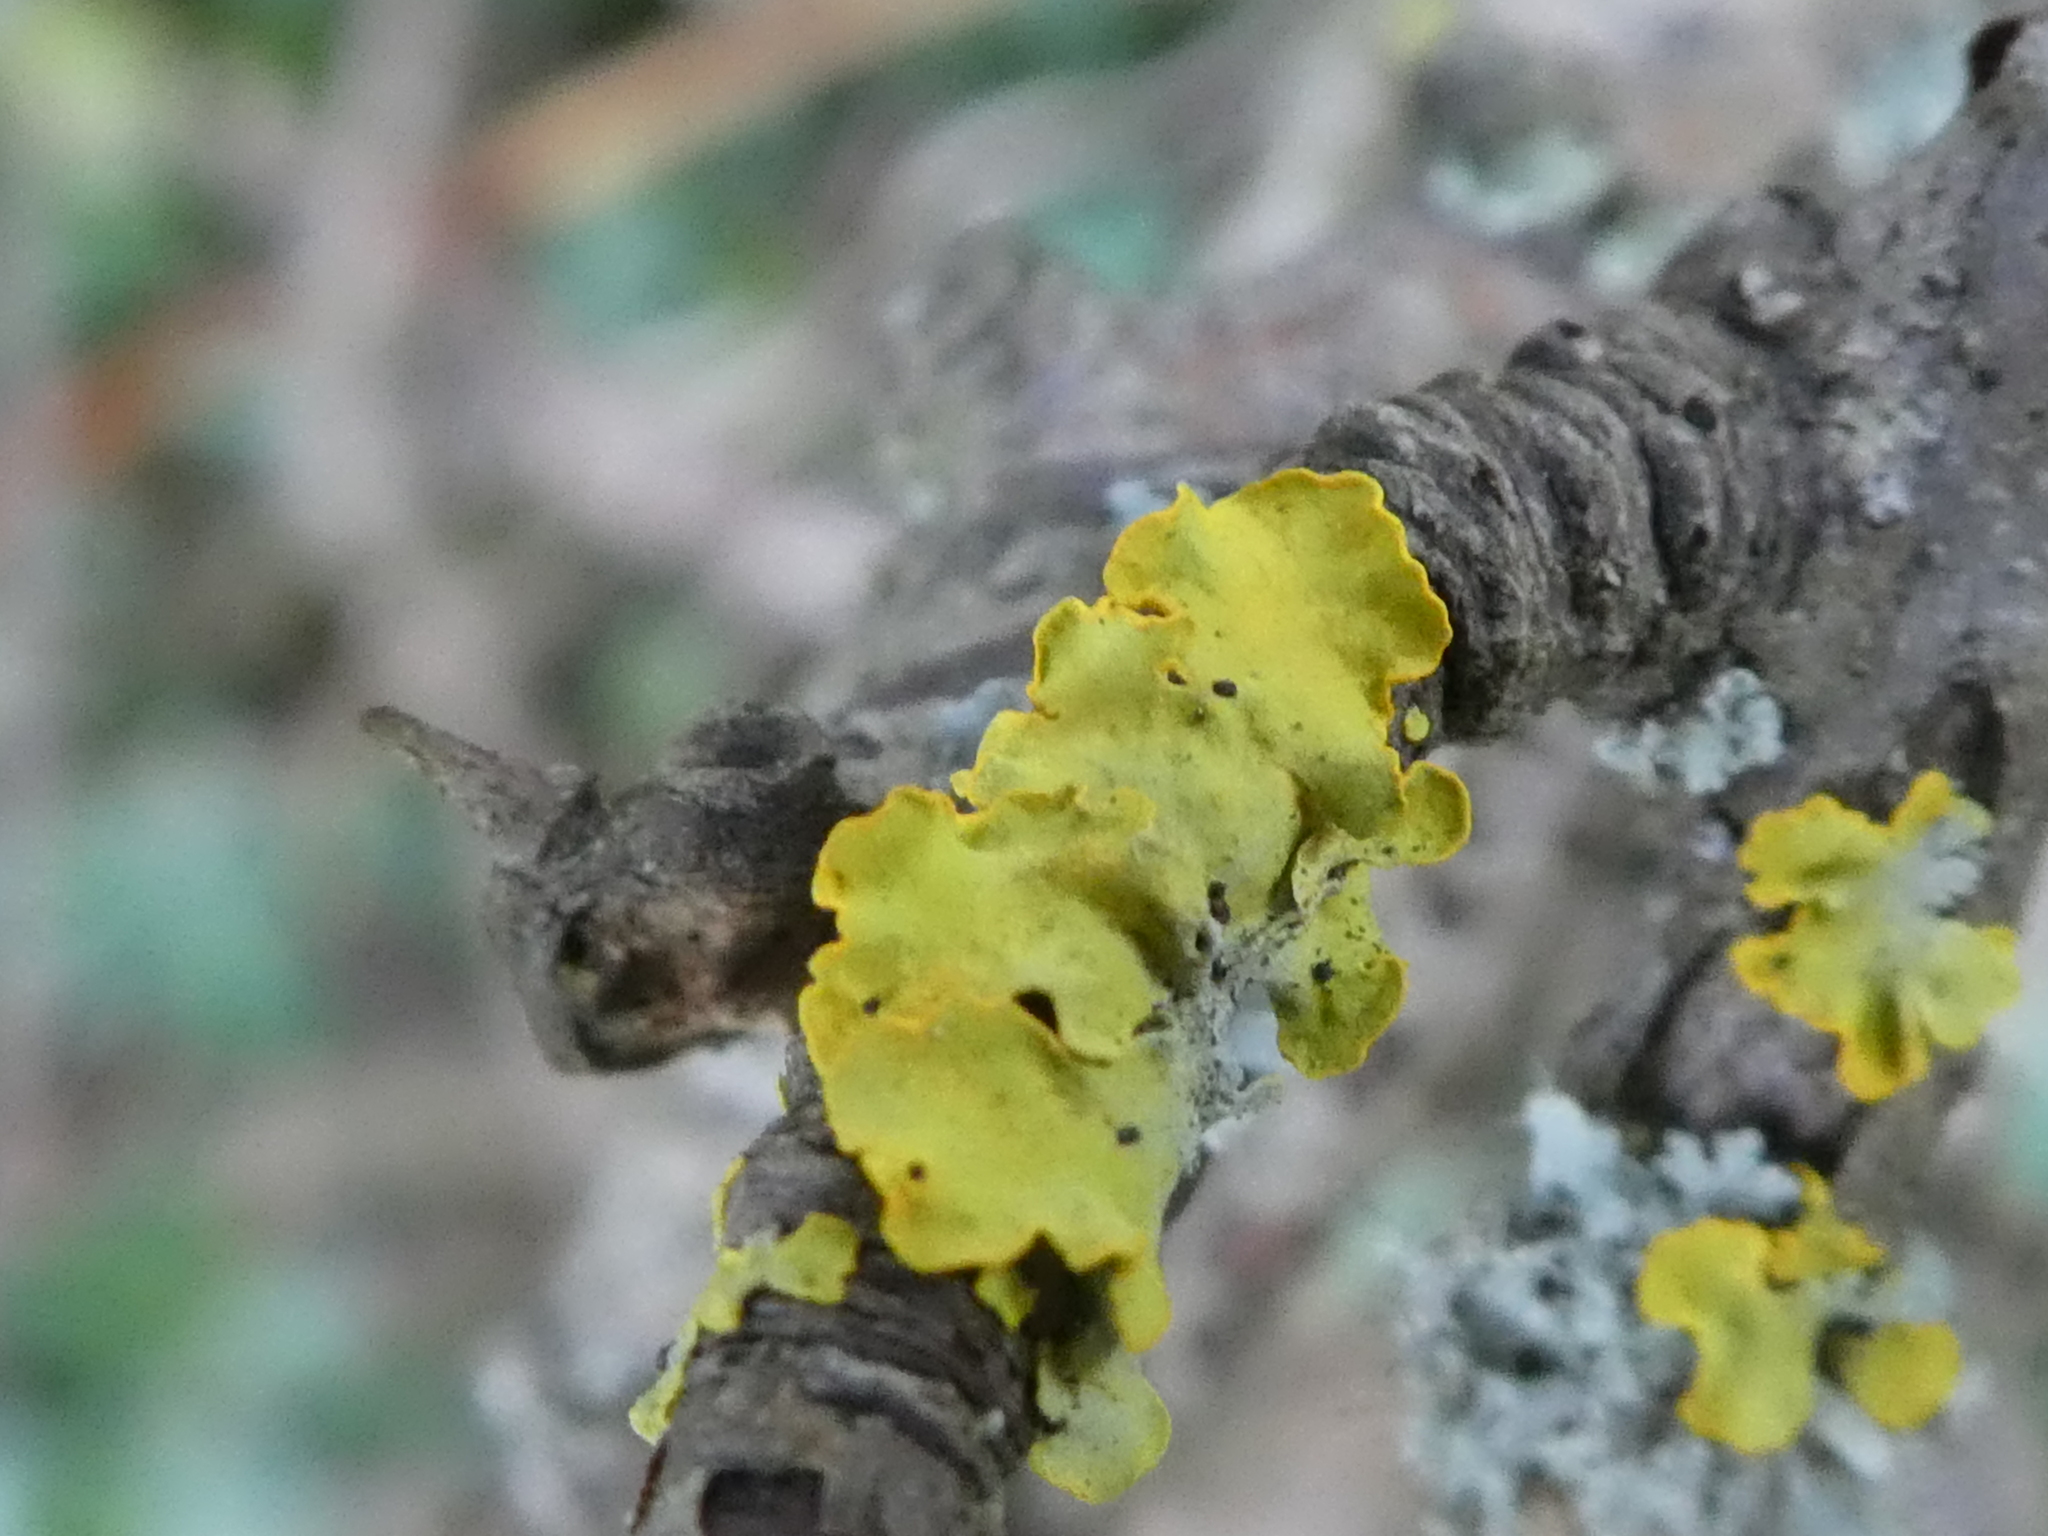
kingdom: Fungi
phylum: Ascomycota
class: Lecanoromycetes
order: Teloschistales
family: Teloschistaceae
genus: Xanthoria
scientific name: Xanthoria parietina
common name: Common orange lichen
